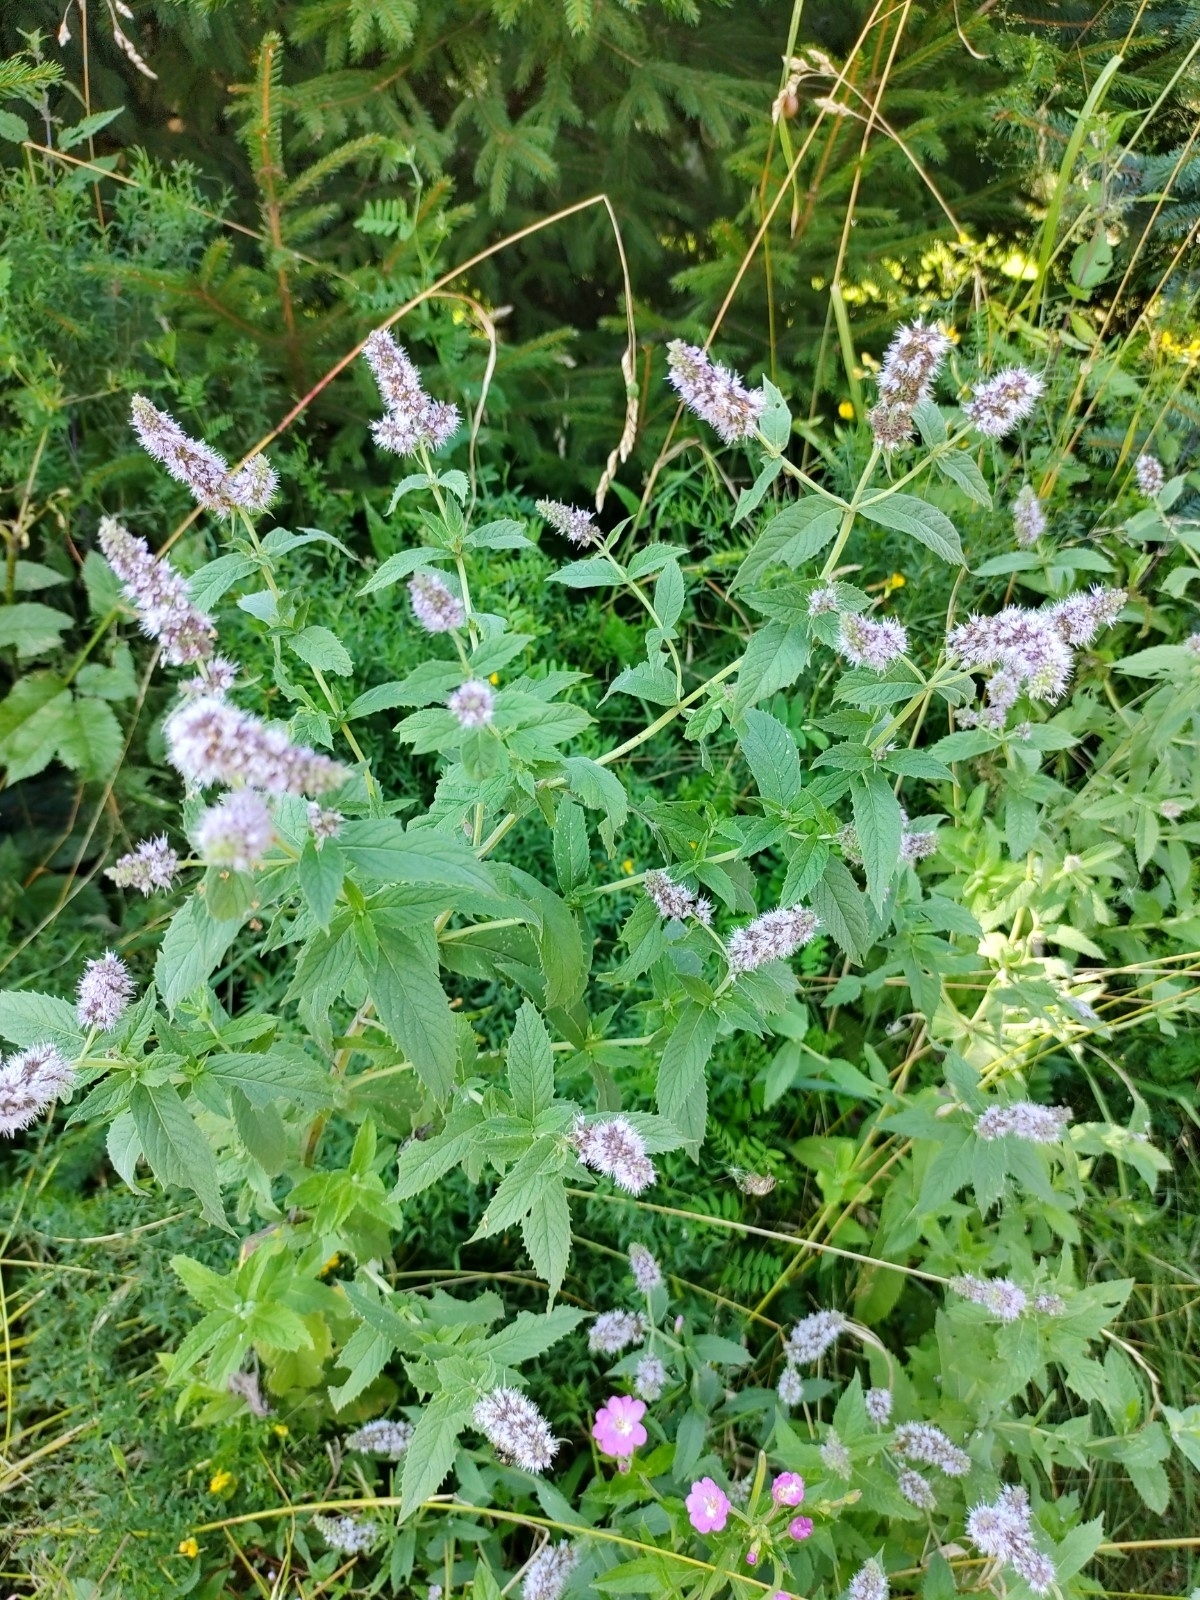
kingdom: Plantae
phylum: Tracheophyta
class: Magnoliopsida
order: Lamiales
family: Lamiaceae
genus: Mentha
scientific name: Mentha longifolia
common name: Horse mint
